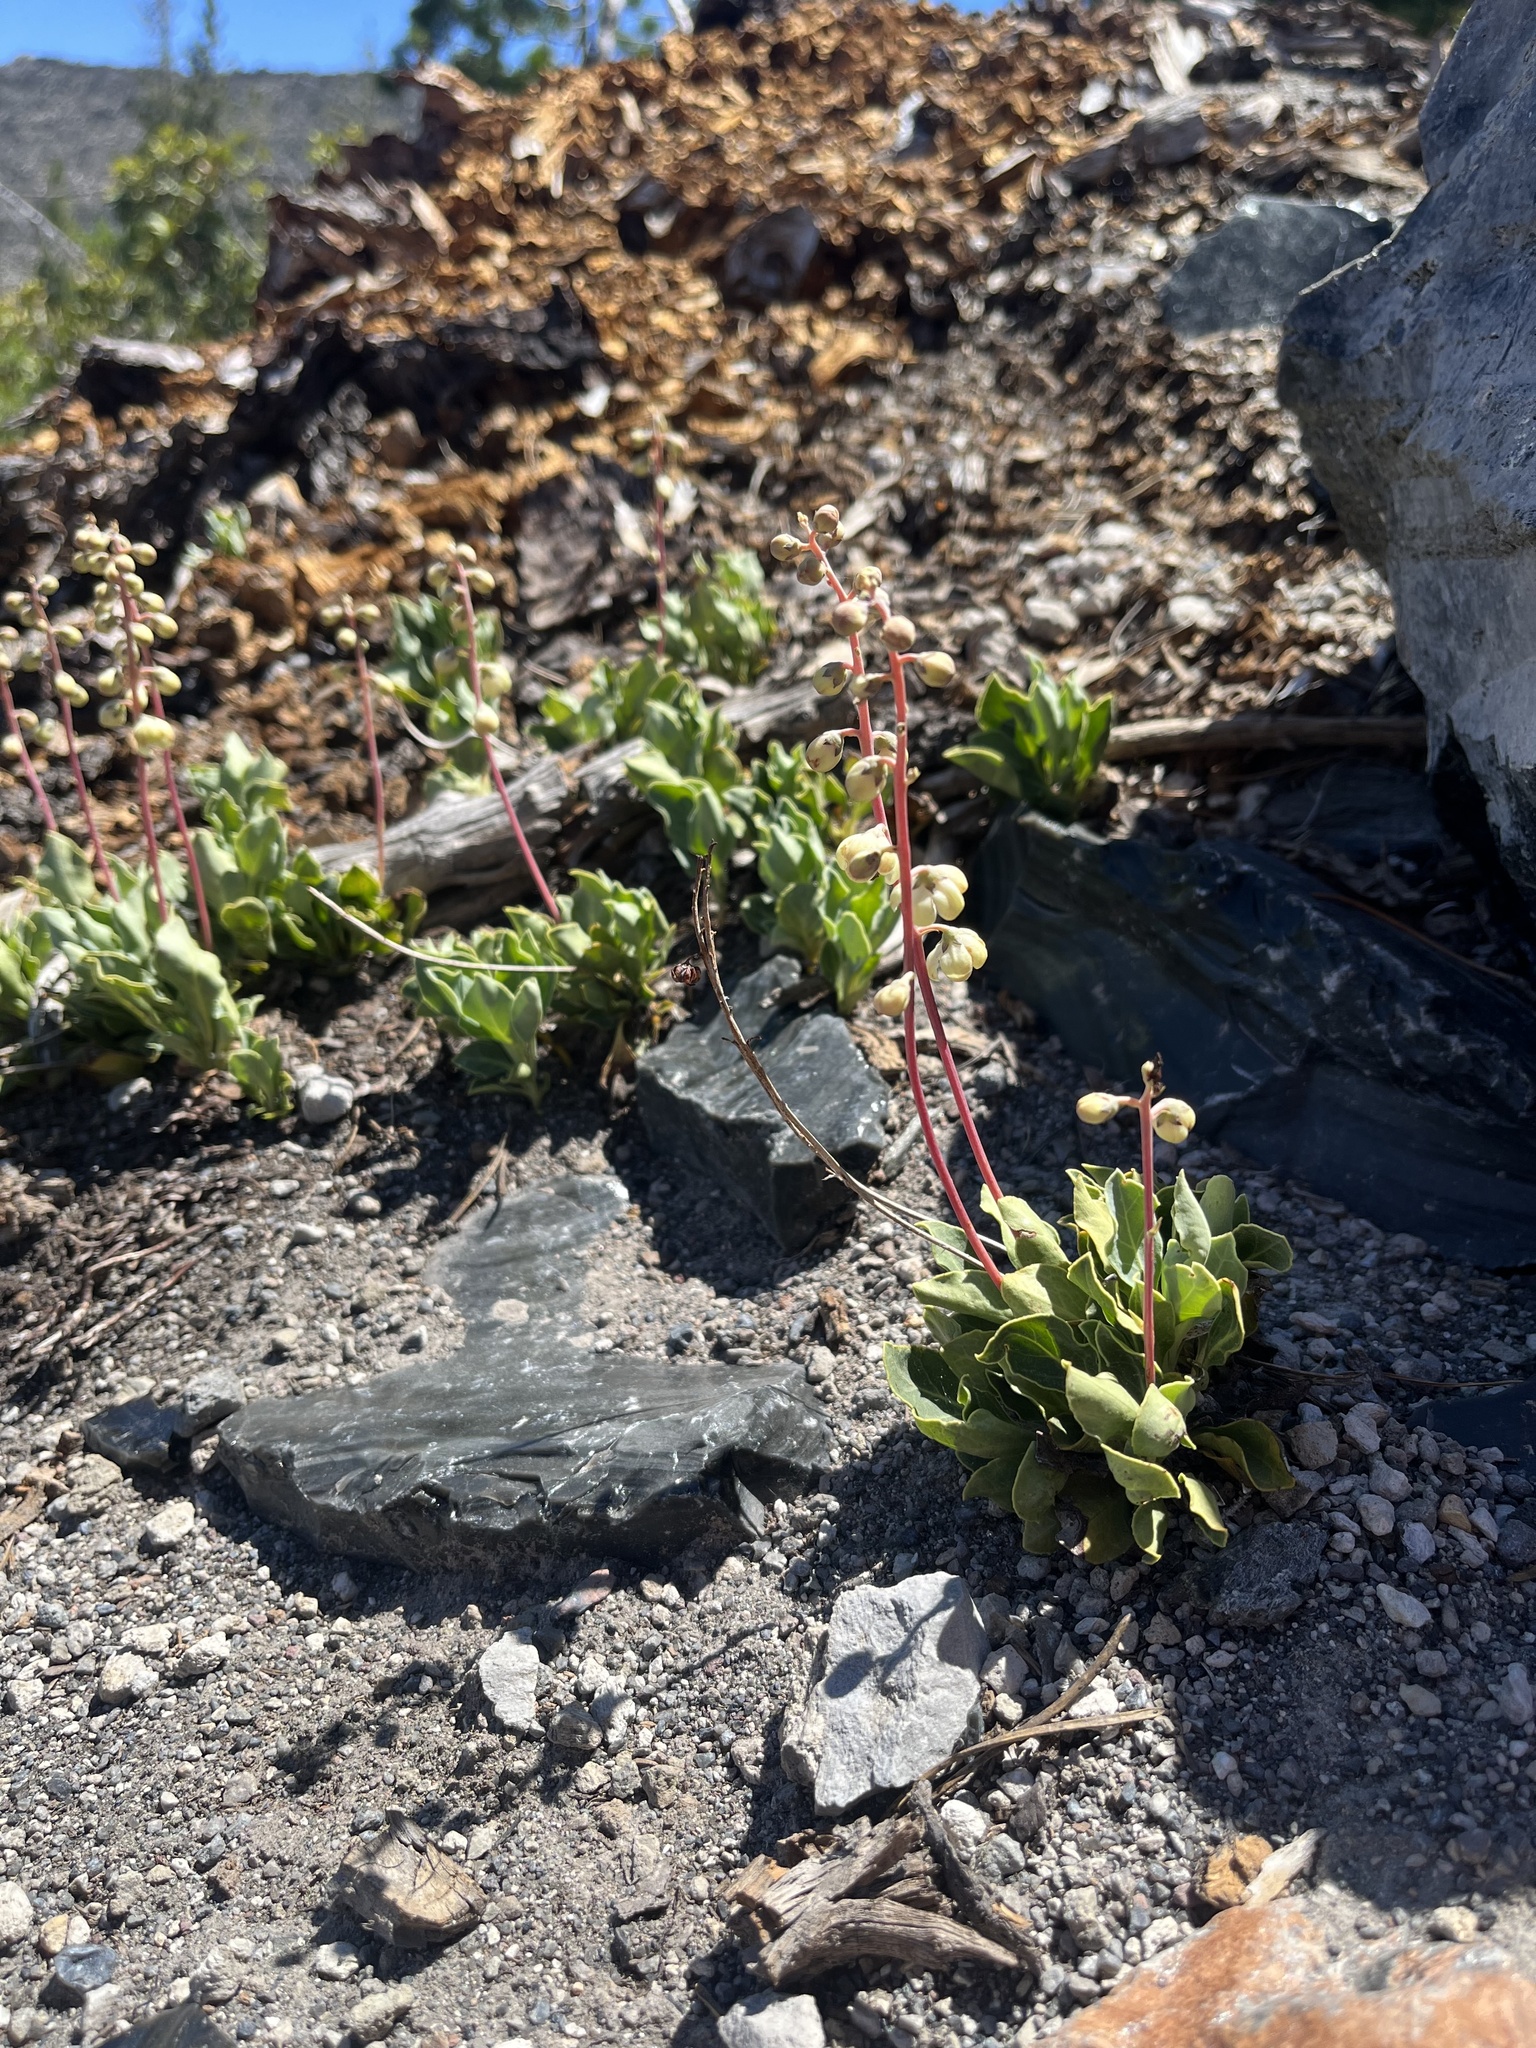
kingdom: Plantae
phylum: Tracheophyta
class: Magnoliopsida
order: Ericales
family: Ericaceae
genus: Pyrola
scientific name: Pyrola dentata
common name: Tooth-leaved wintergreen
